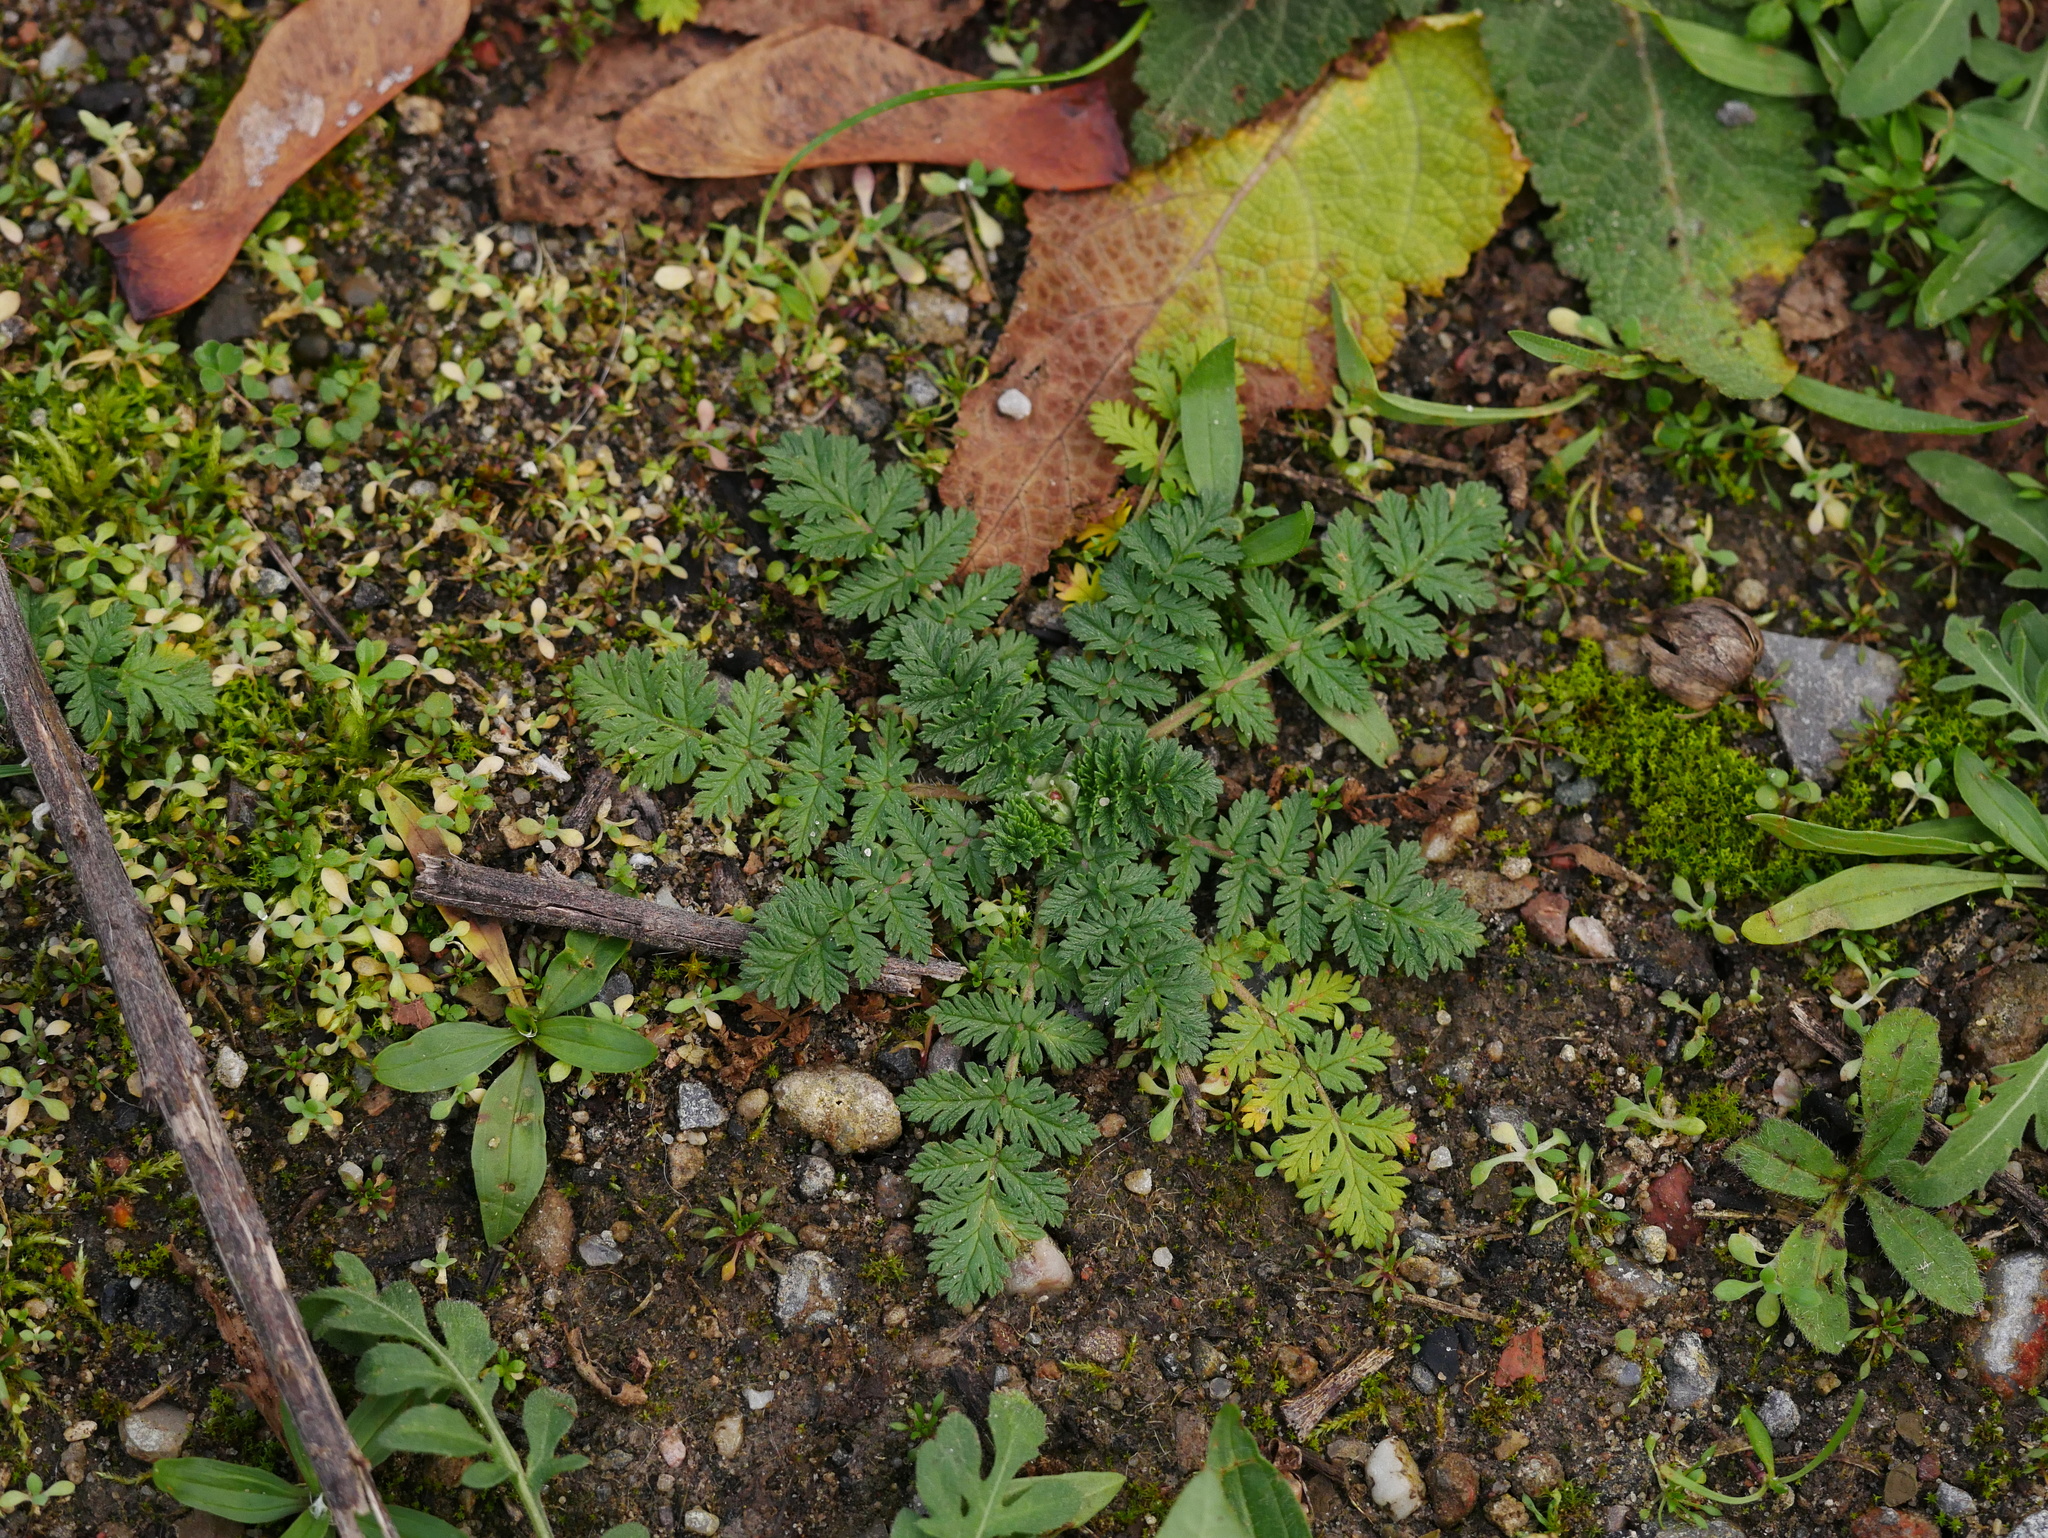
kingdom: Plantae
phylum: Tracheophyta
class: Magnoliopsida
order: Geraniales
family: Geraniaceae
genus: Erodium
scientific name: Erodium cicutarium
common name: Common stork's-bill
